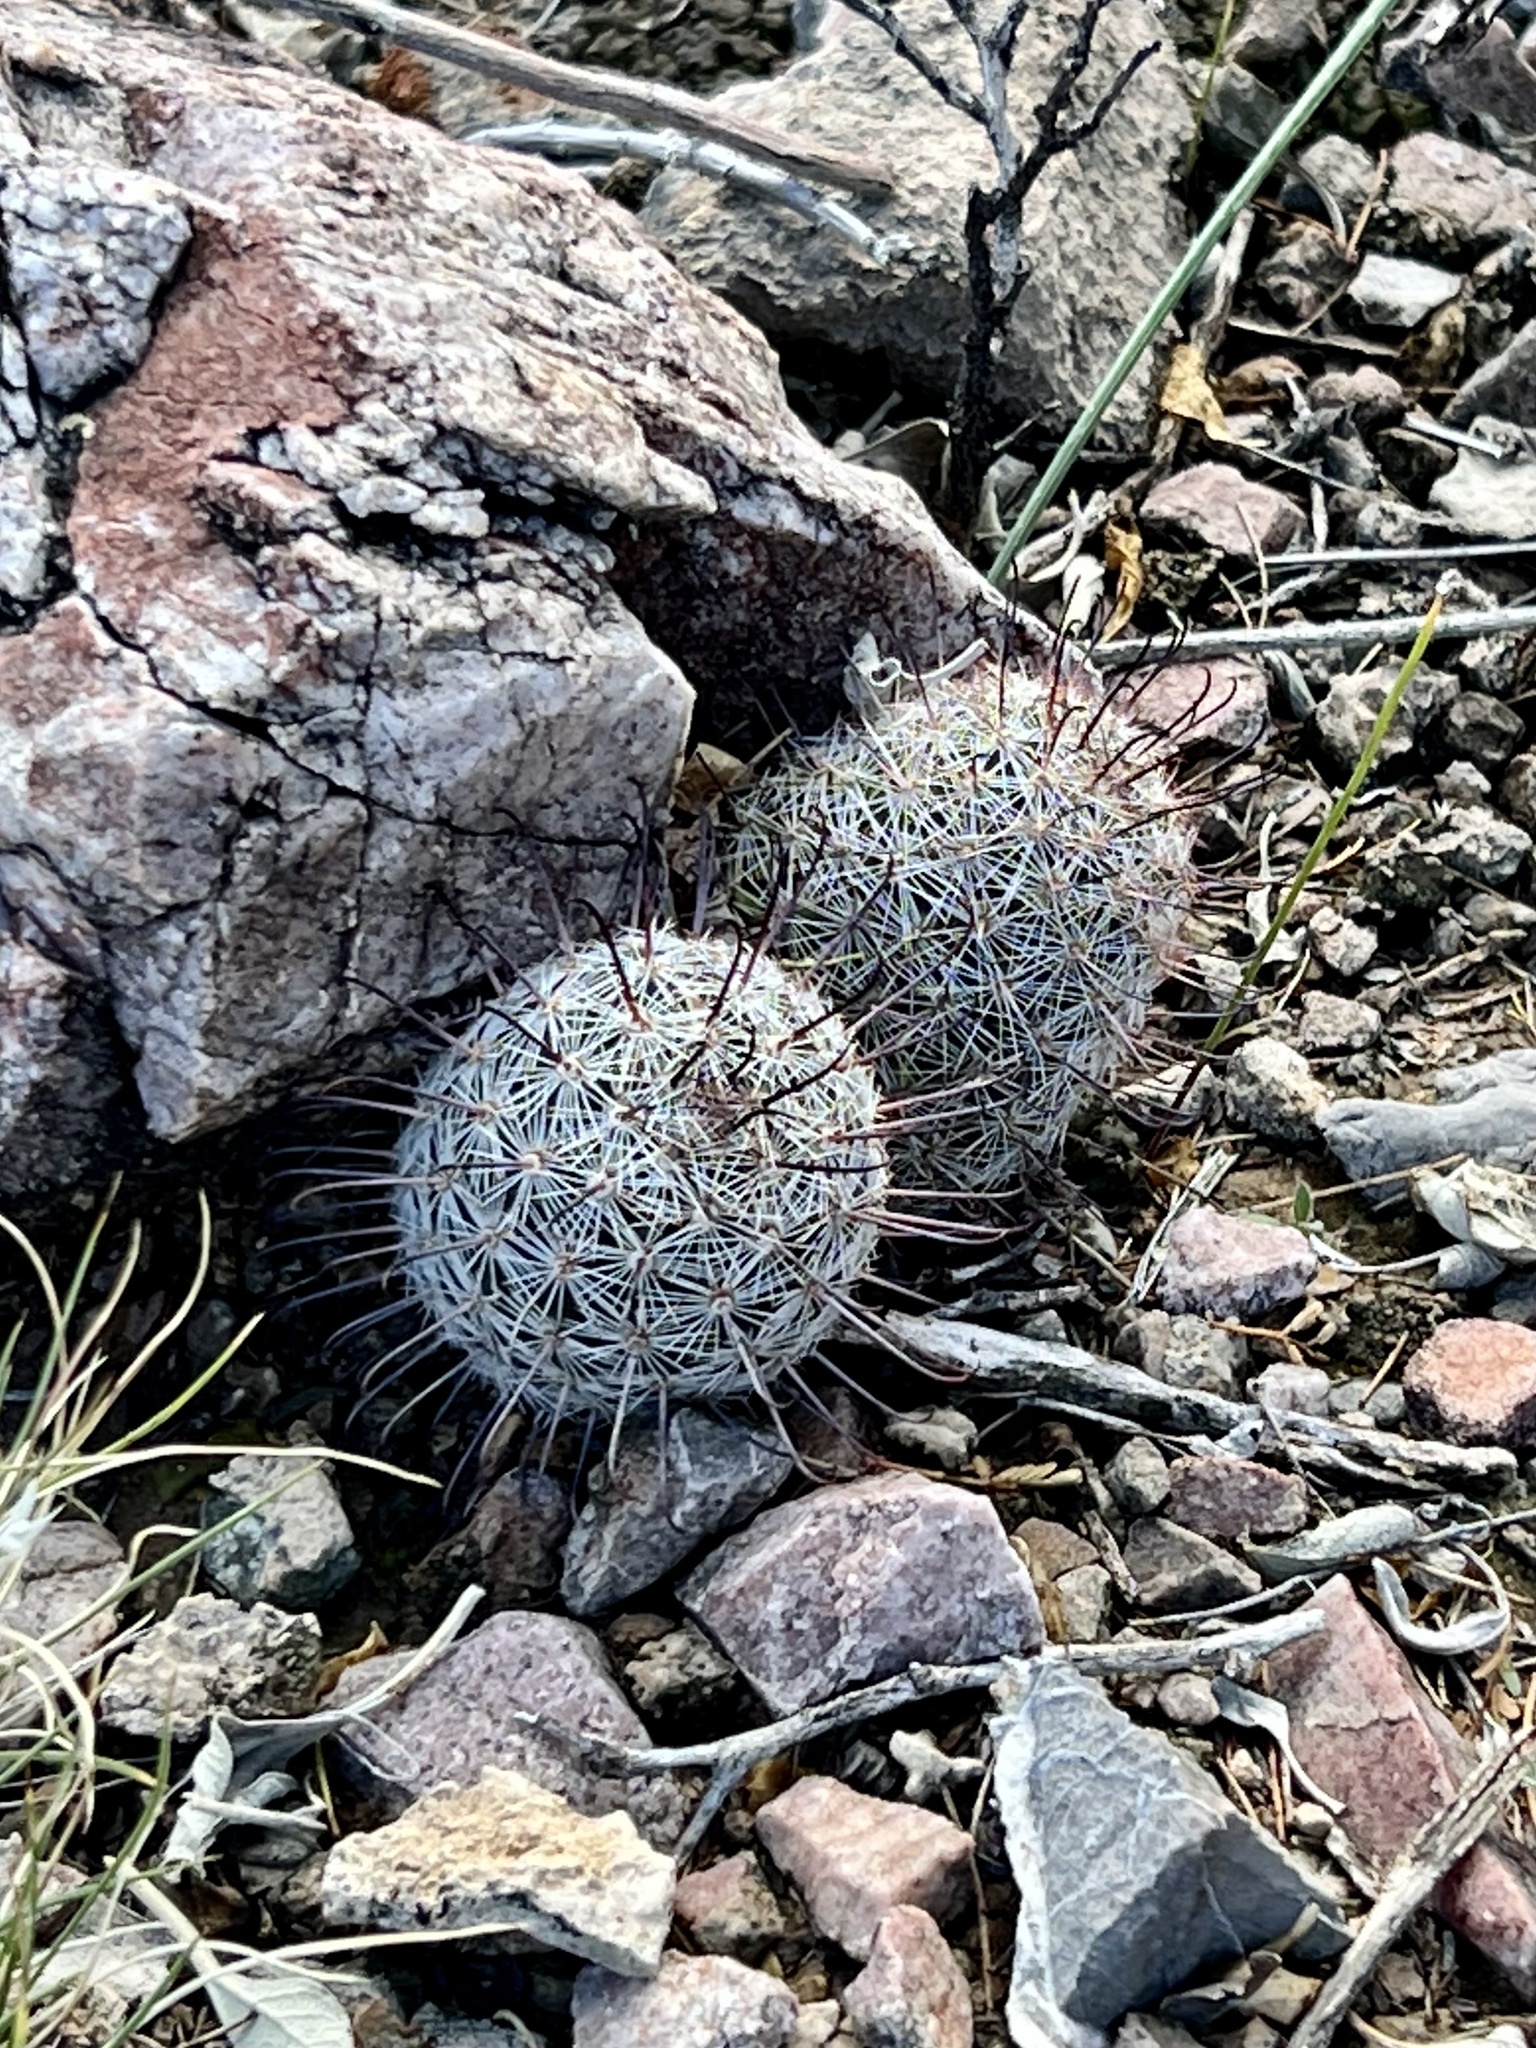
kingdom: Plantae
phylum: Tracheophyta
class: Magnoliopsida
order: Caryophyllales
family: Cactaceae
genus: Cochemiea
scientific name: Cochemiea grahamii
